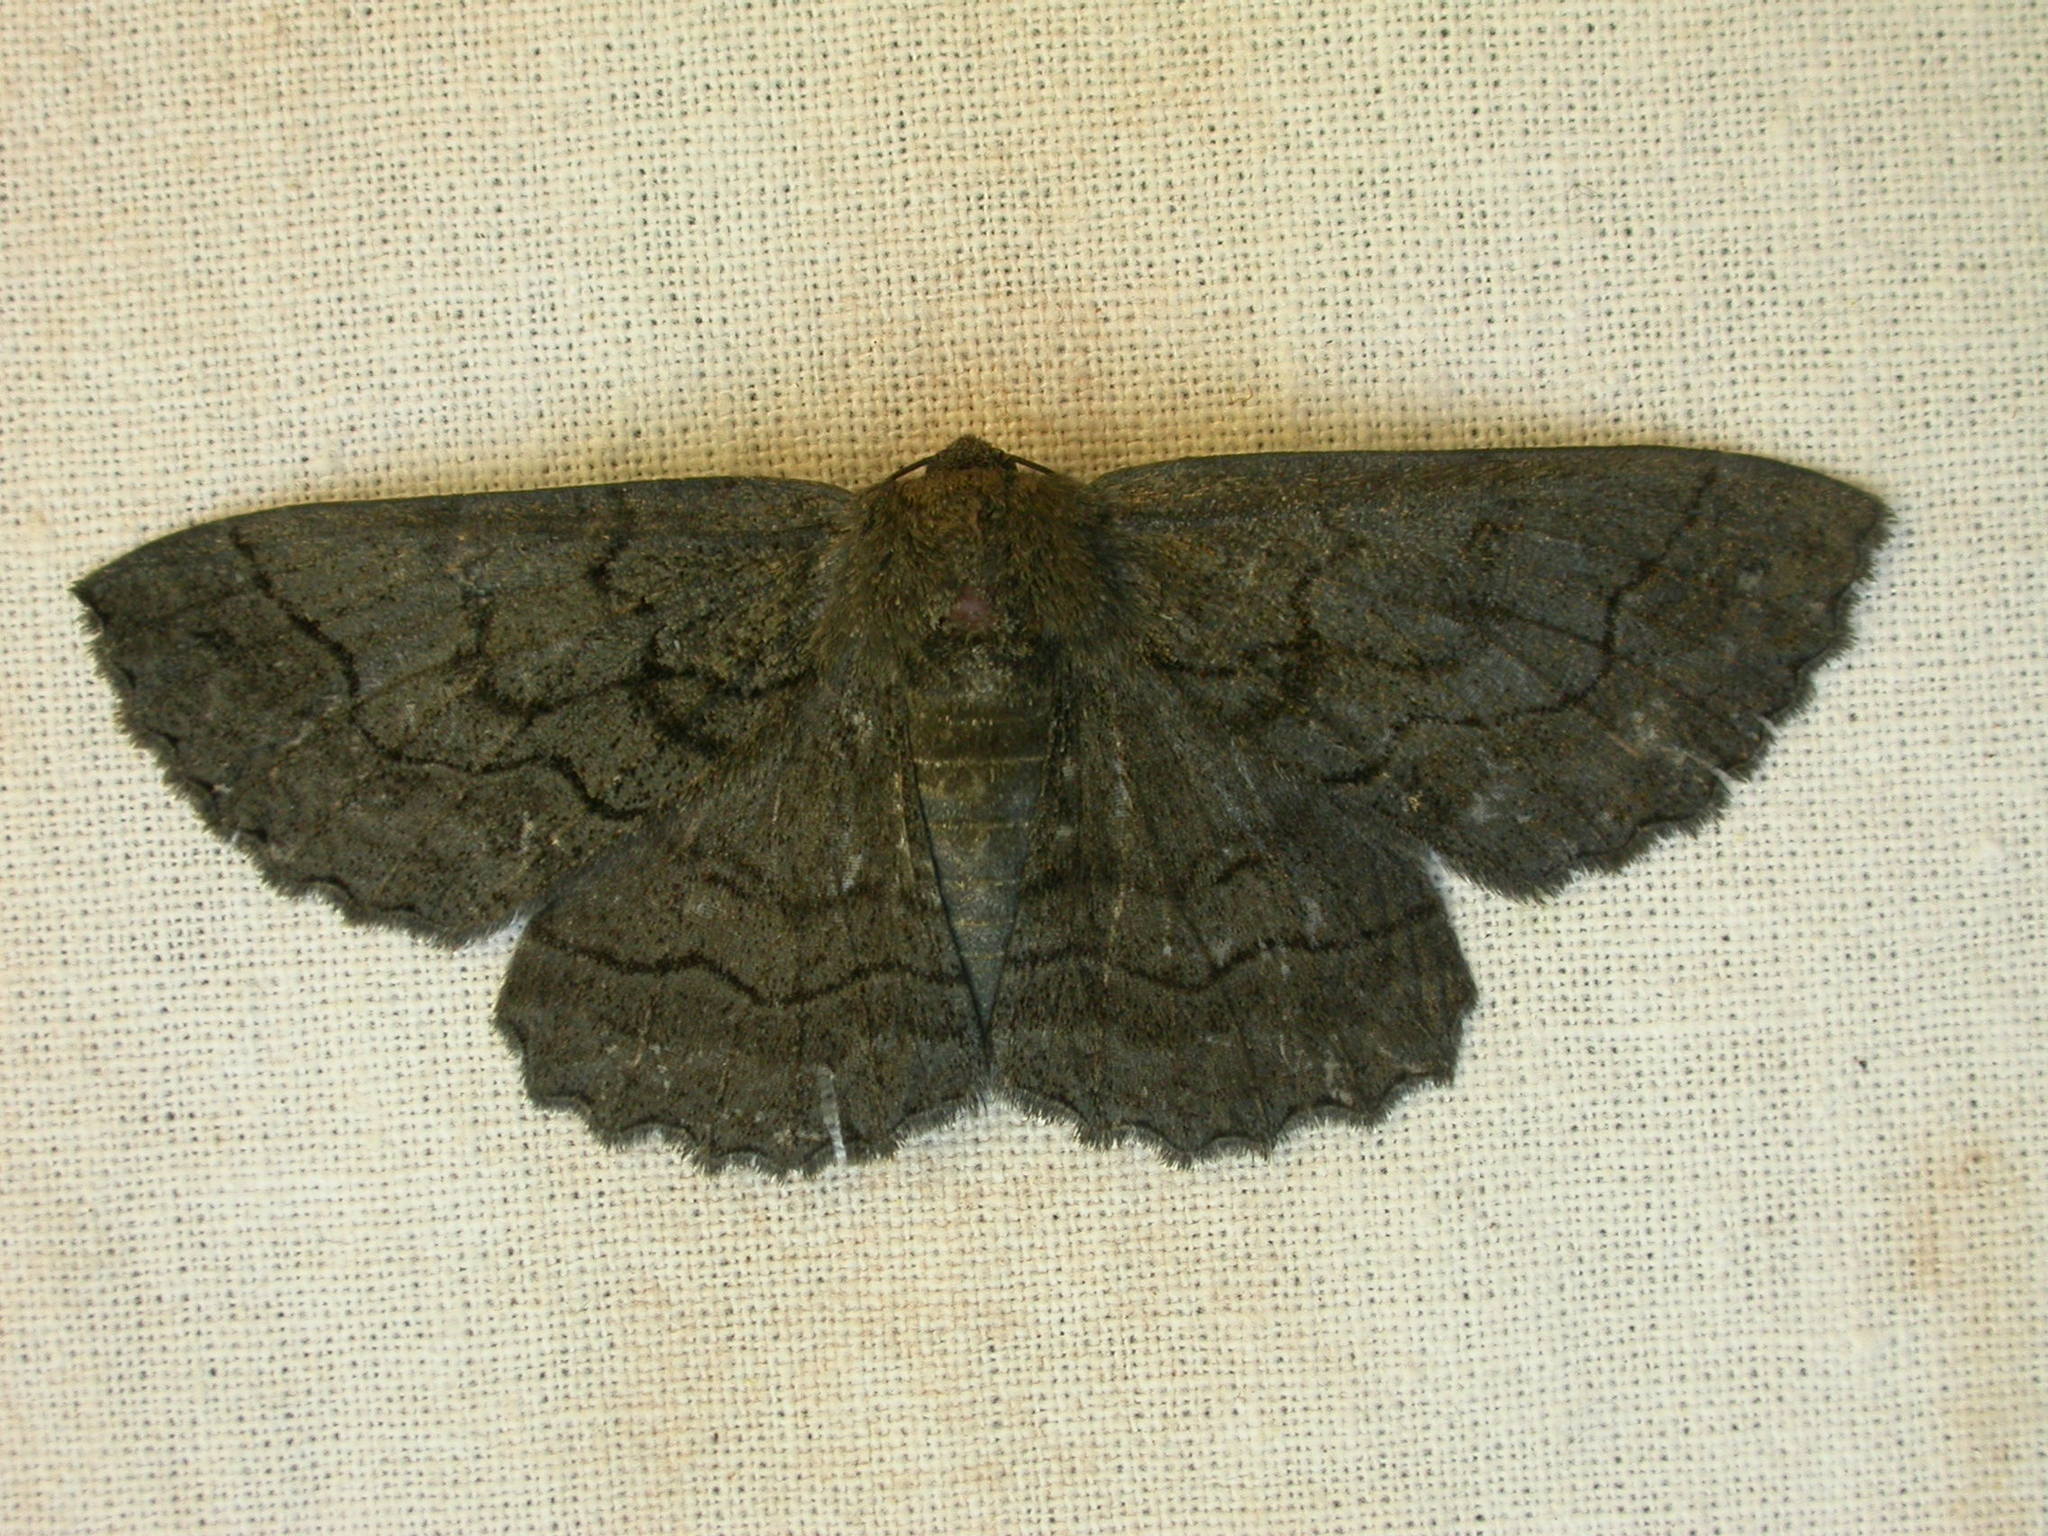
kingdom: Animalia
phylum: Arthropoda
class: Insecta
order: Lepidoptera
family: Geometridae
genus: Melanodes
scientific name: Melanodes anthracitaria
